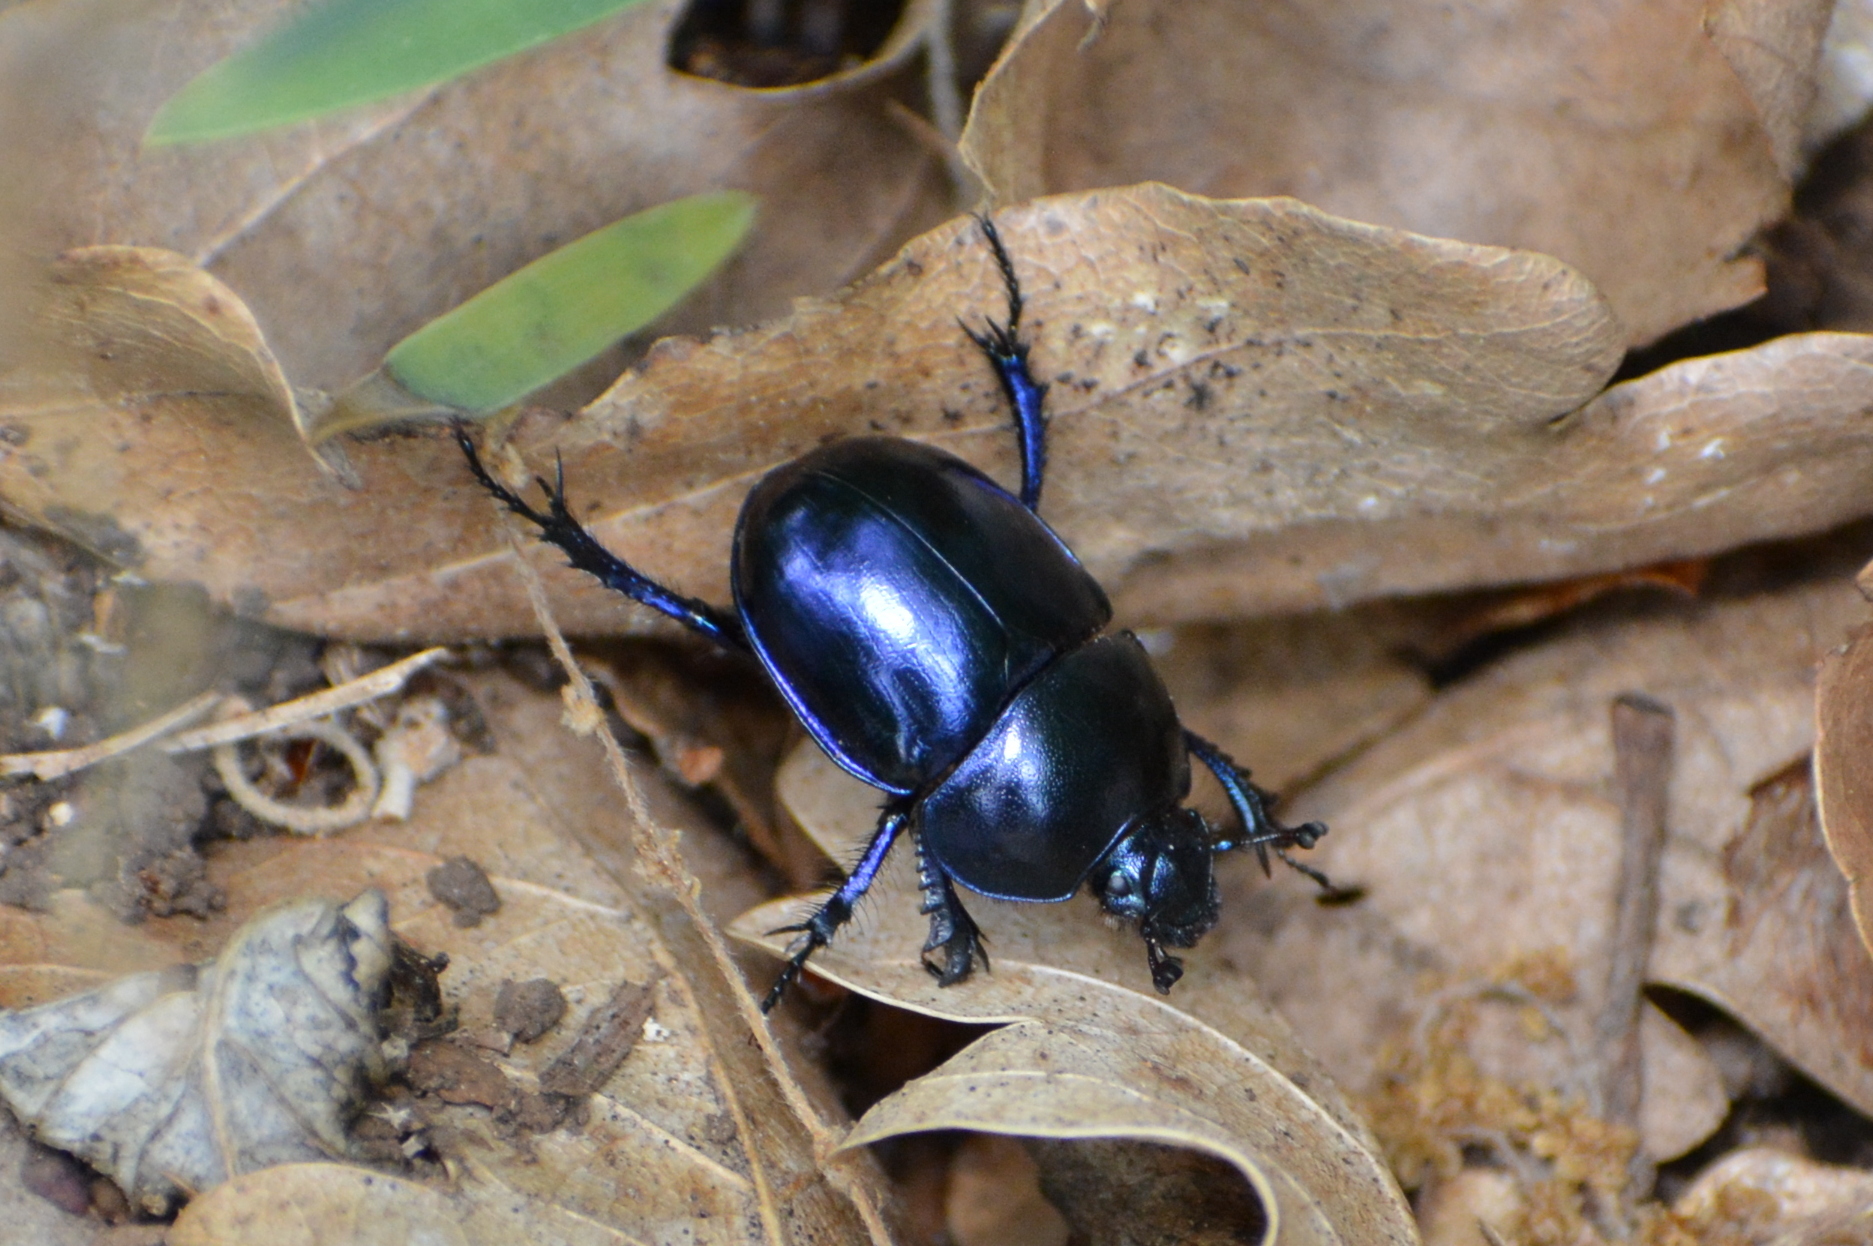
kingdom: Animalia
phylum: Arthropoda
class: Insecta
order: Coleoptera
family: Geotrupidae
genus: Trypocopris
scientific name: Trypocopris vernalis
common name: Spring dumbledor
